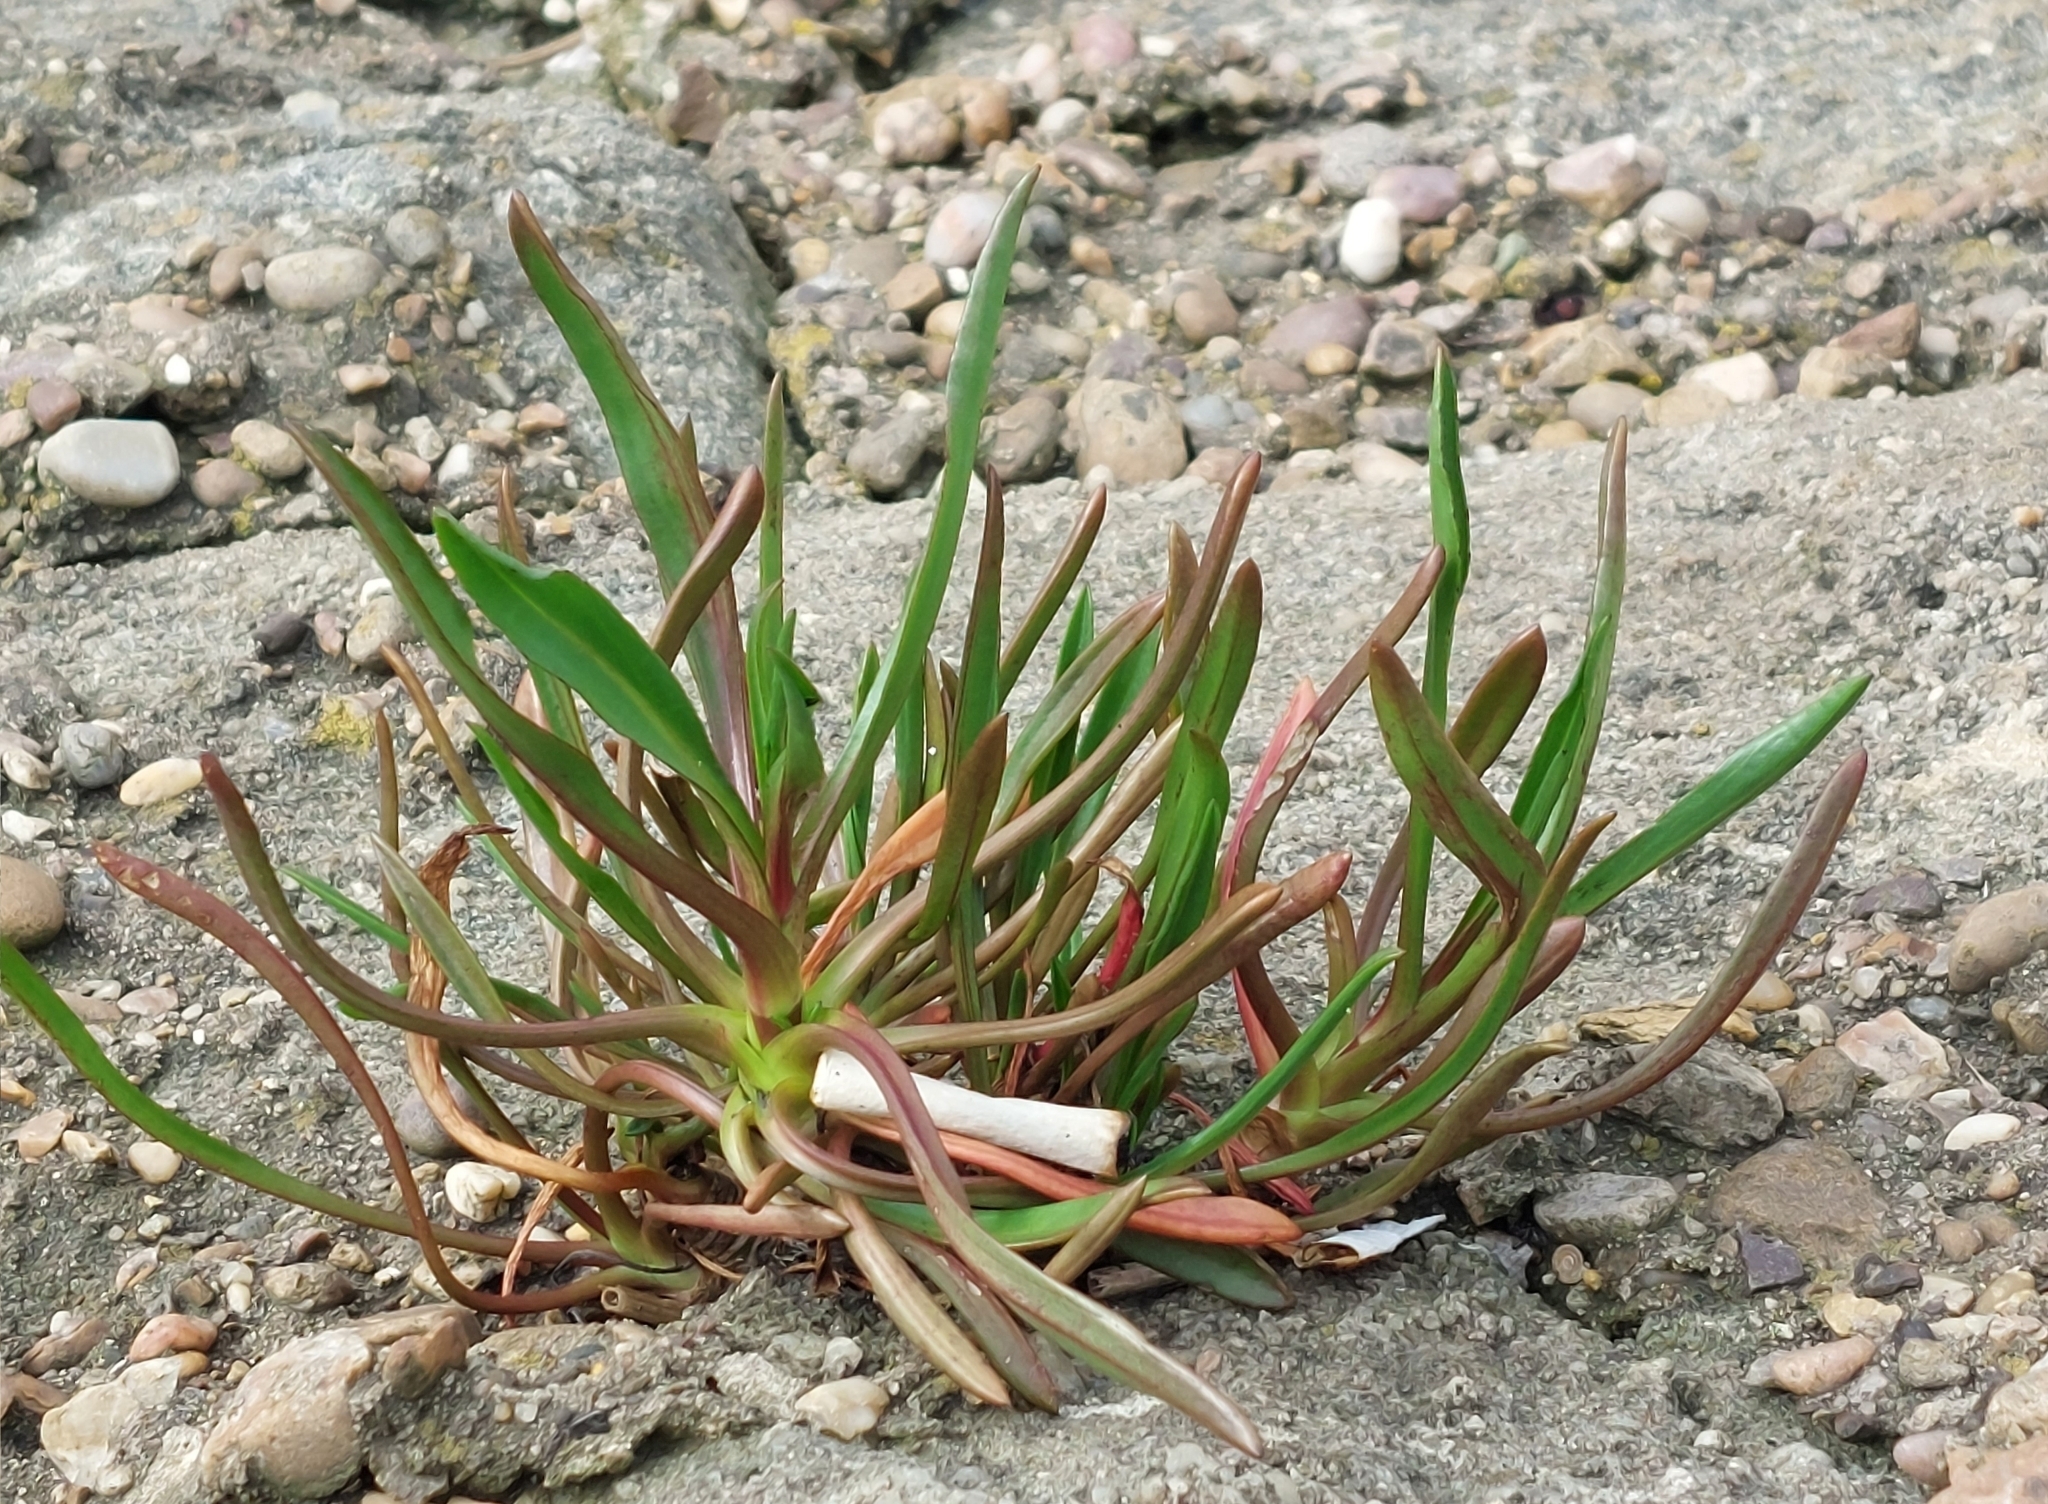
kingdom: Plantae
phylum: Tracheophyta
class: Magnoliopsida
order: Asterales
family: Asteraceae
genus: Tripolium
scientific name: Tripolium pannonicum
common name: Sea aster
